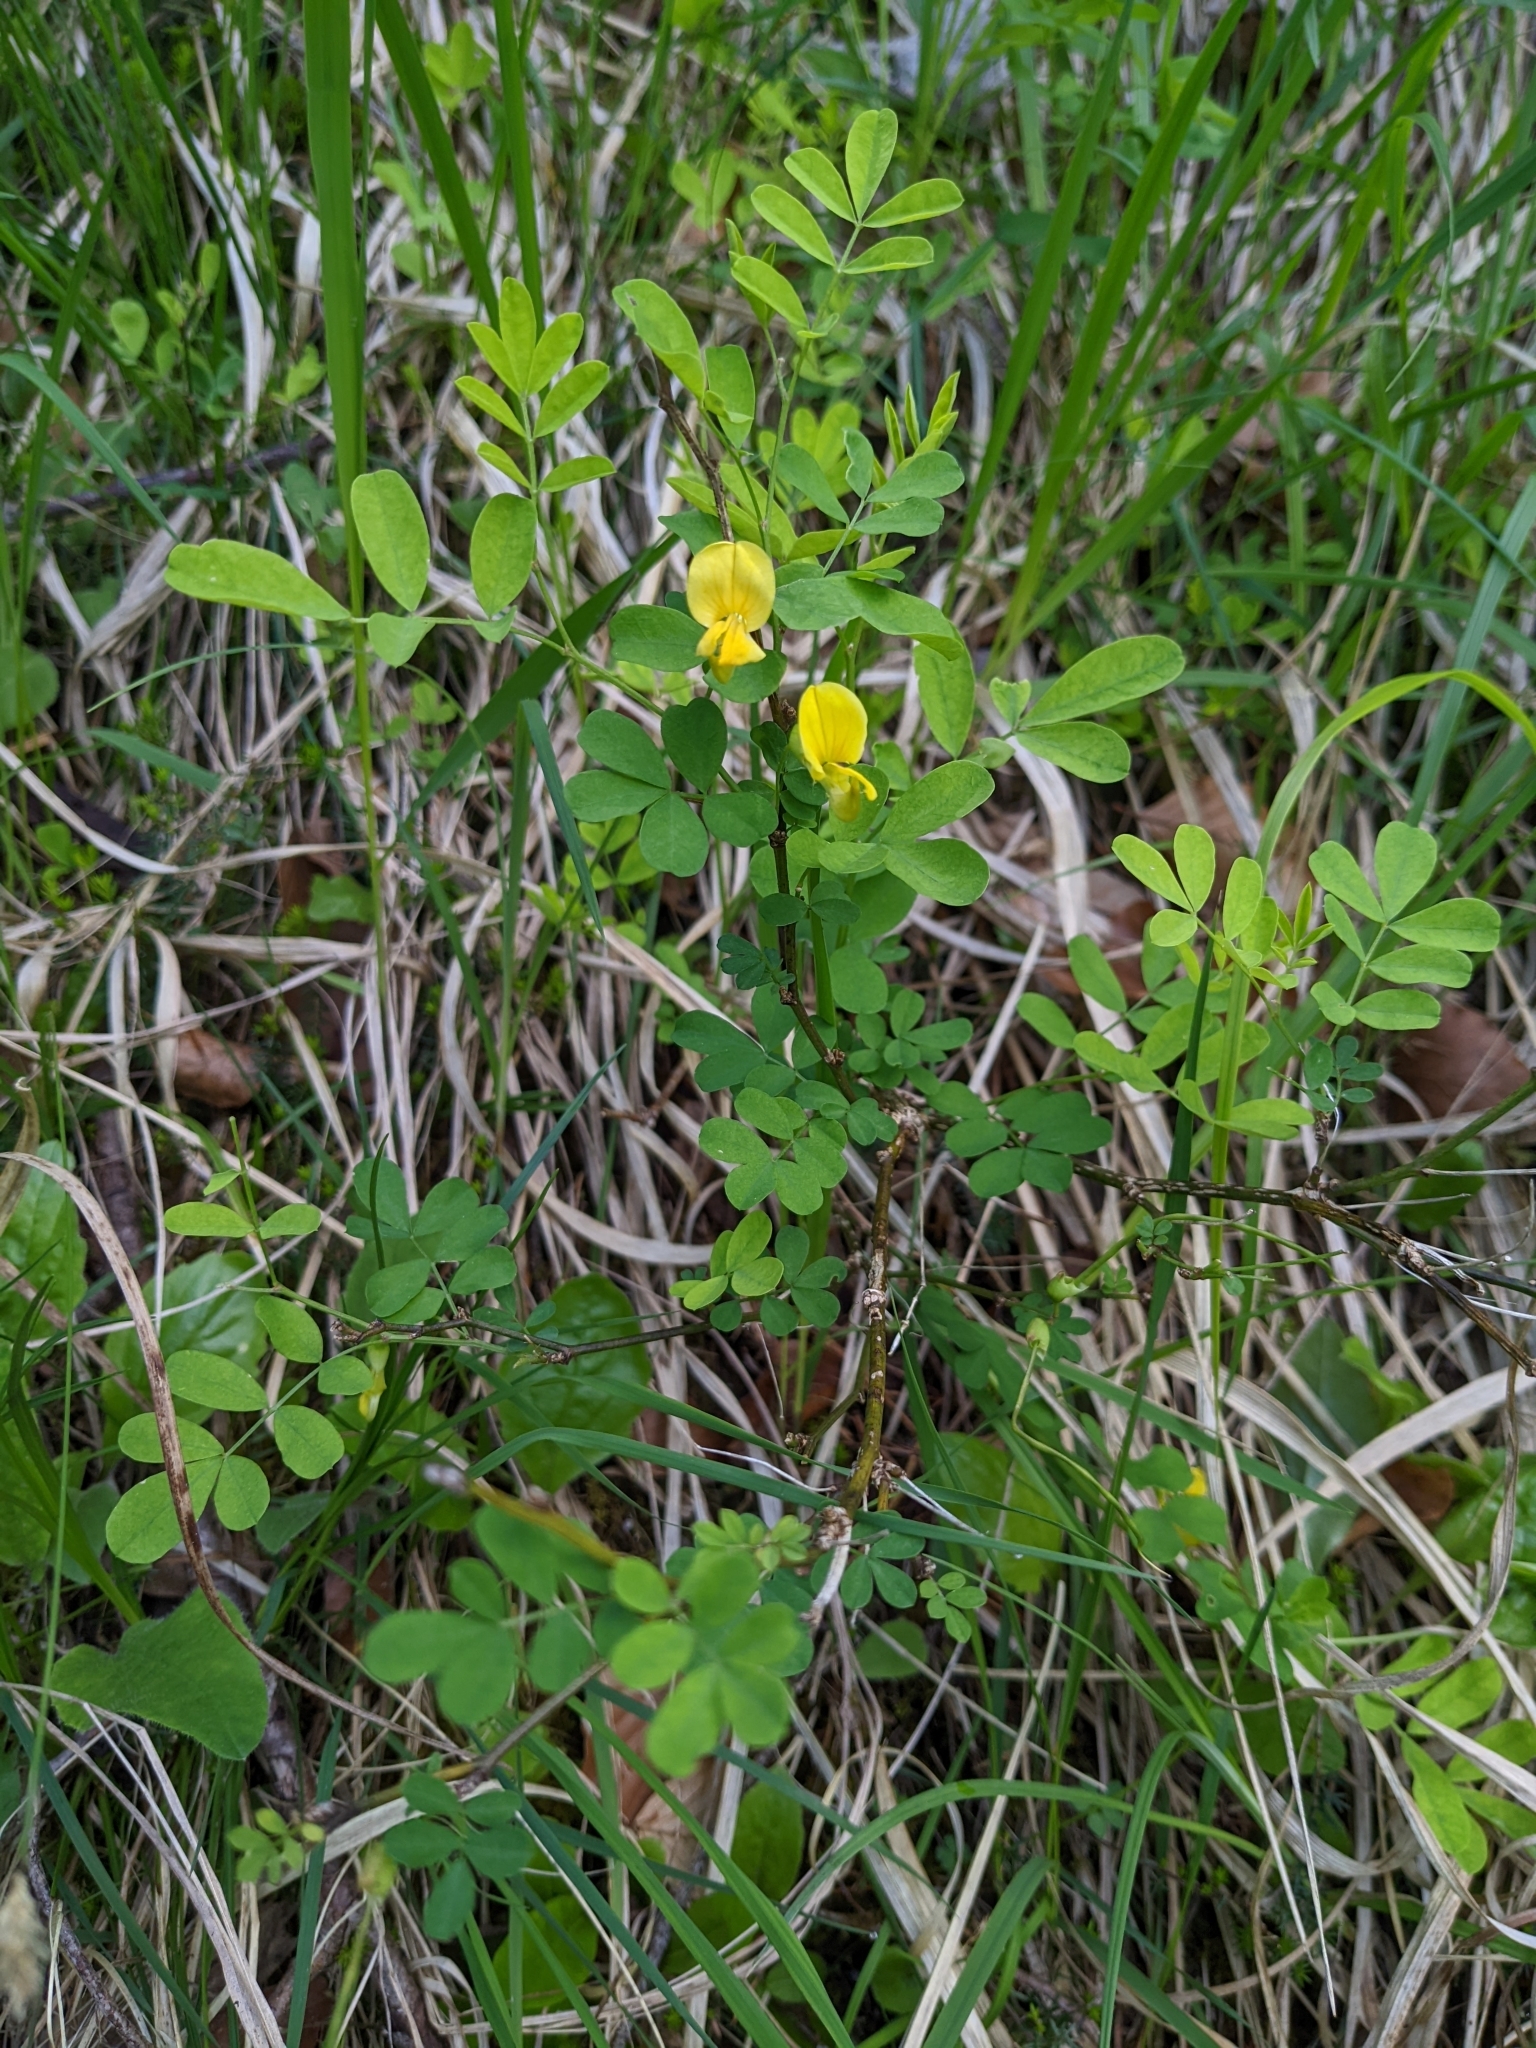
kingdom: Plantae
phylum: Tracheophyta
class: Magnoliopsida
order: Fabales
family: Fabaceae
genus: Hippocrepis
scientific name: Hippocrepis emerus
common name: Scorpion senna
